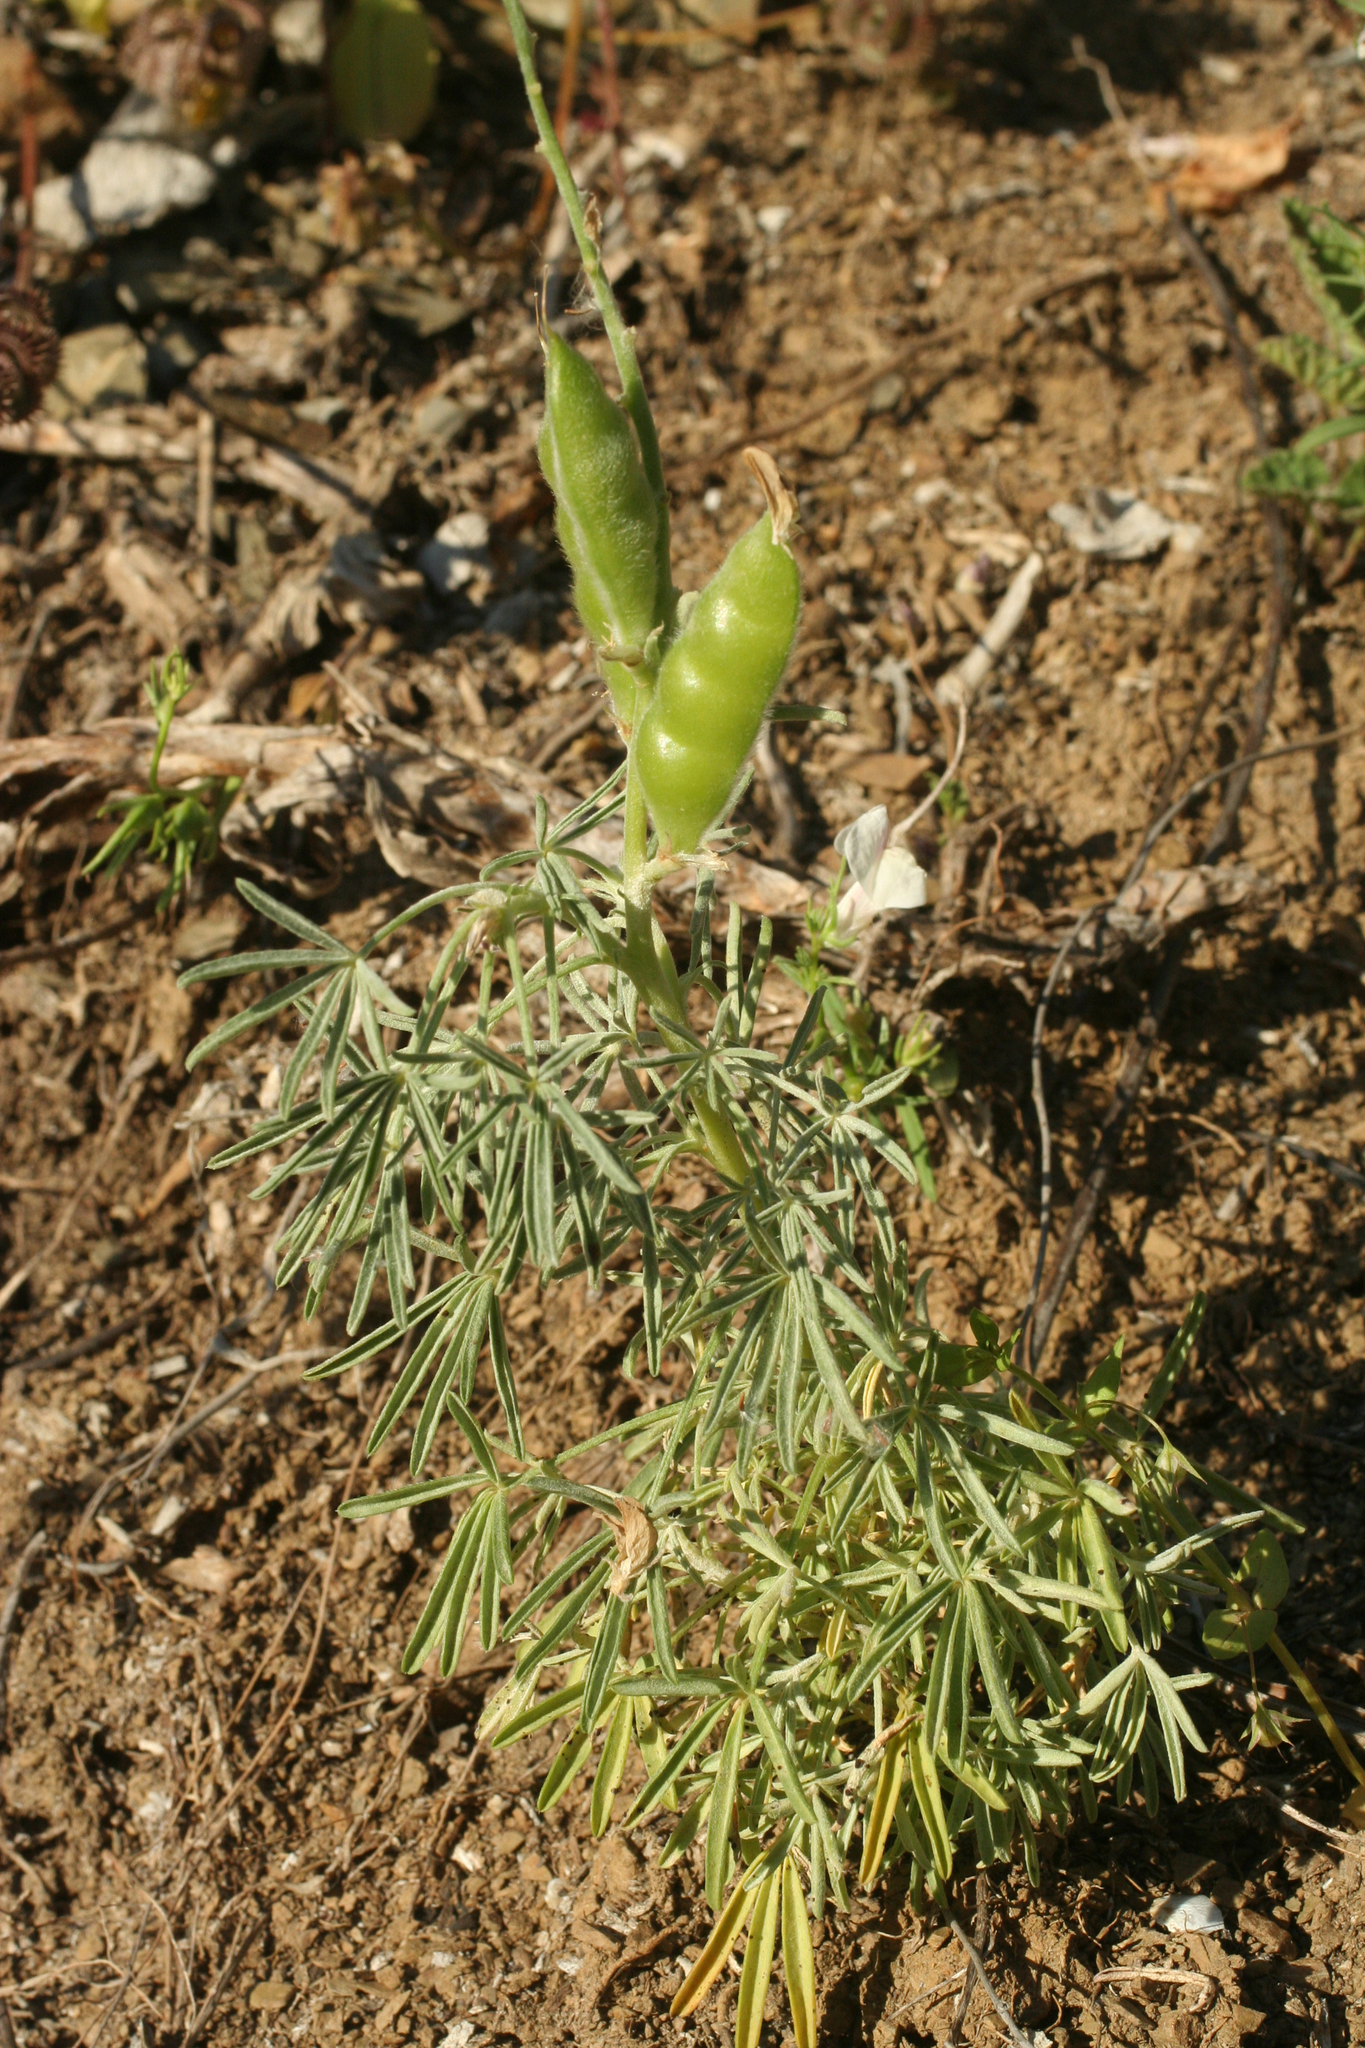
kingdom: Plantae
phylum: Tracheophyta
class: Magnoliopsida
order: Fabales
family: Fabaceae
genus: Lupinus
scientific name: Lupinus angustifolius
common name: Narrow-leaved lupin
